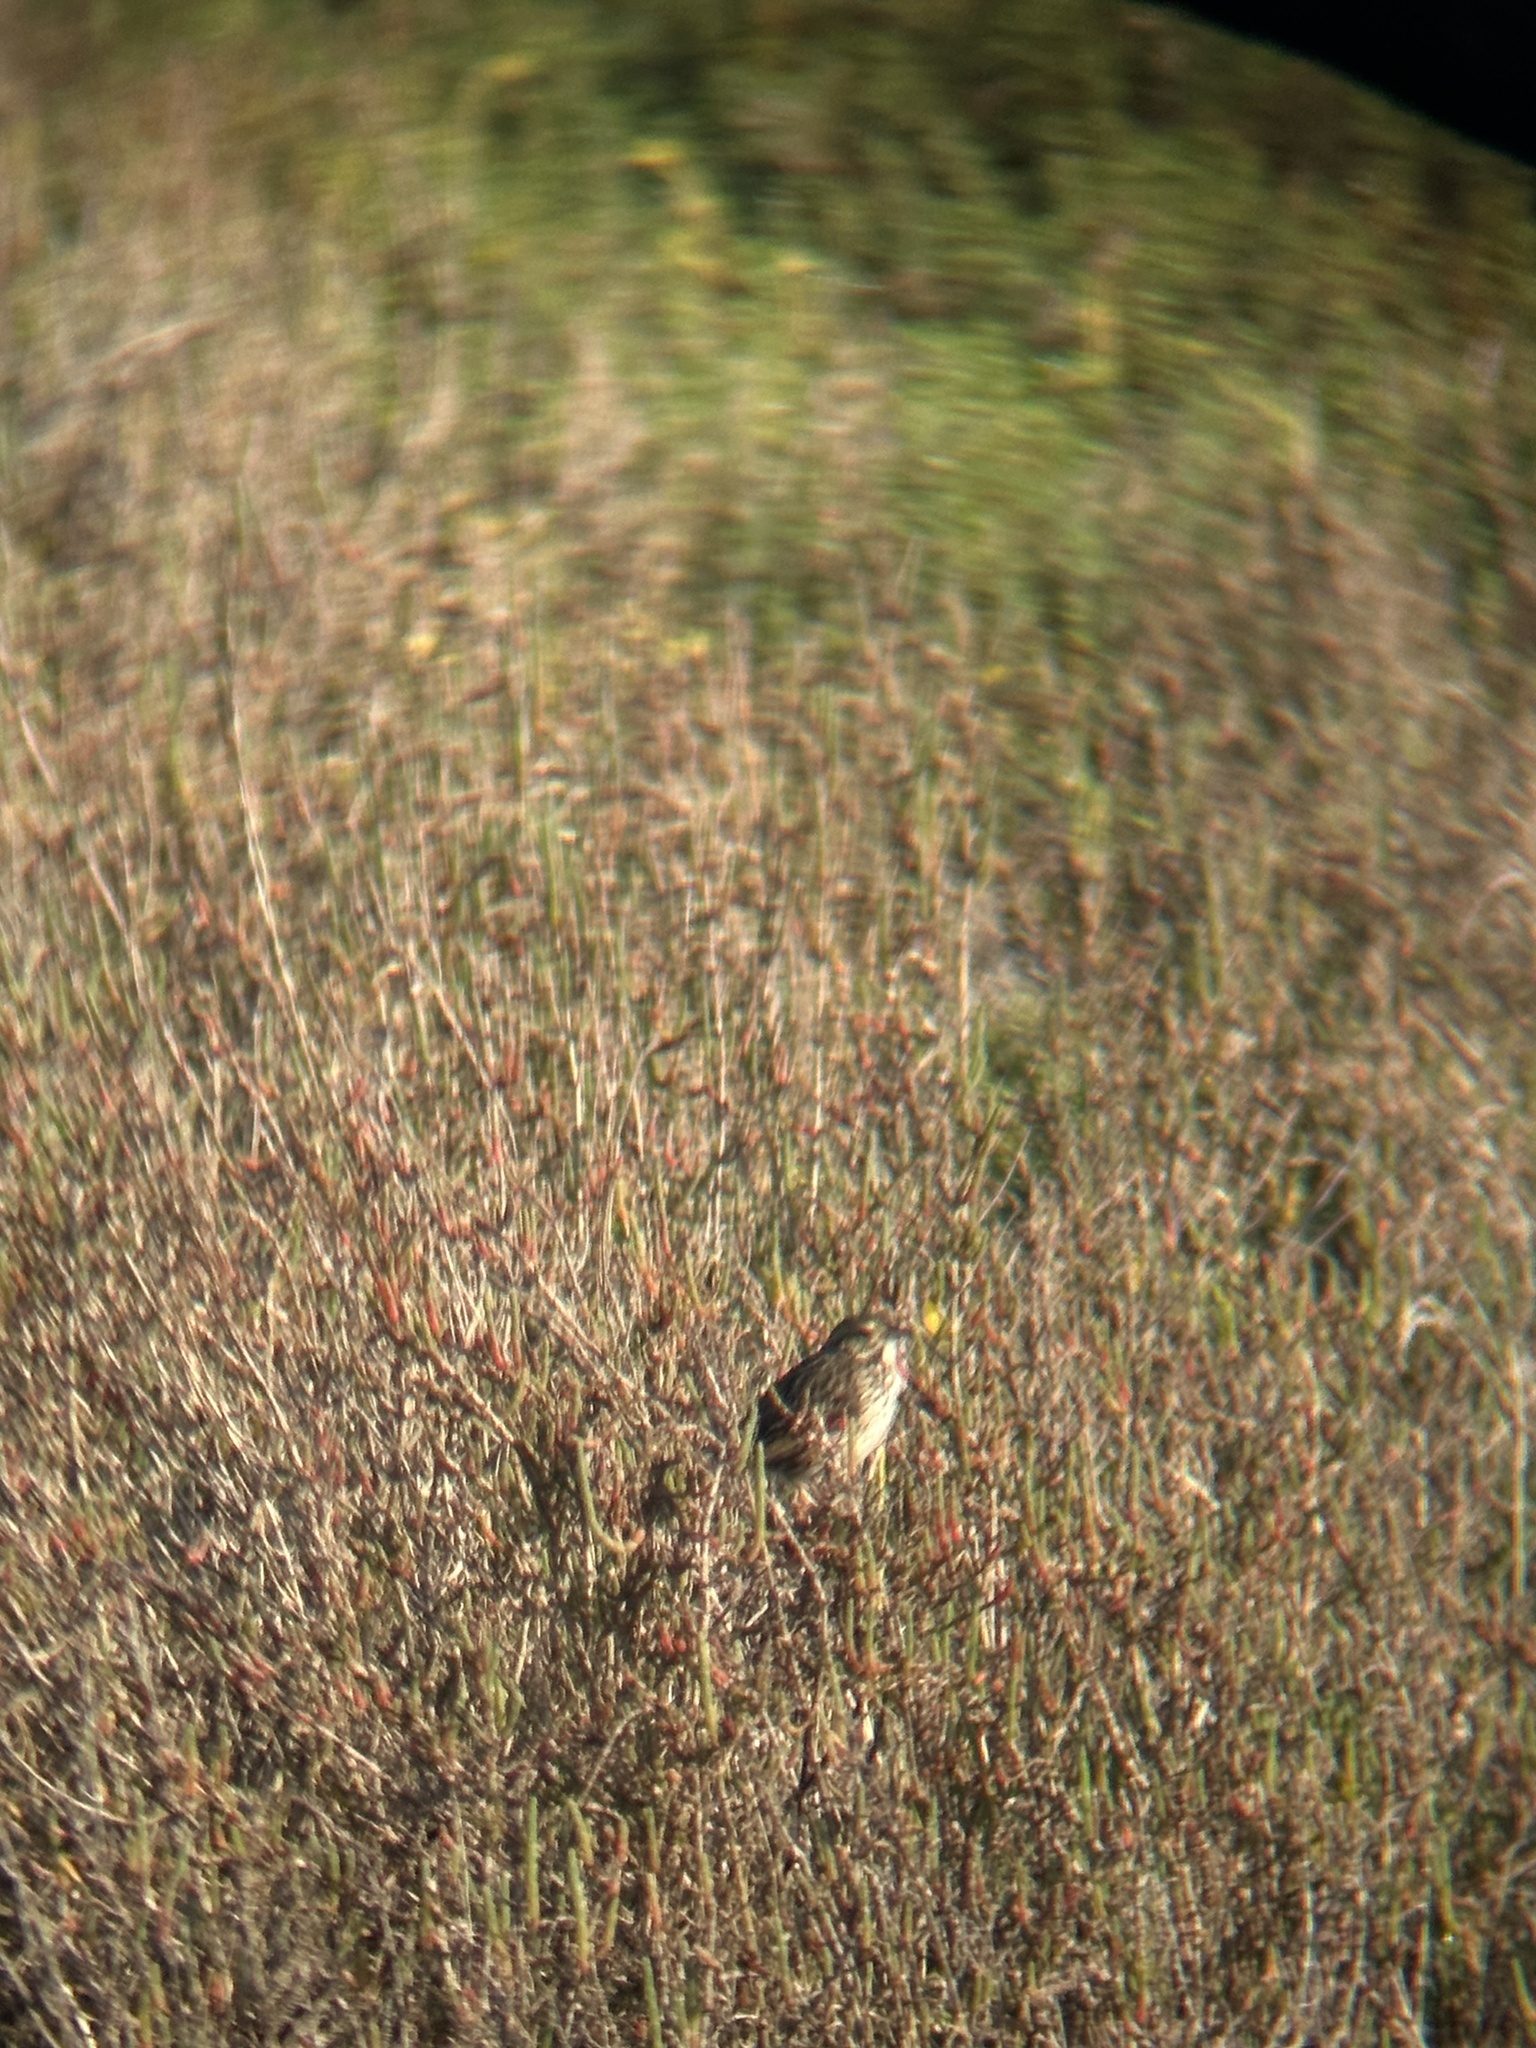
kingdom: Animalia
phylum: Chordata
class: Aves
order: Passeriformes
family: Passerellidae
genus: Passerculus
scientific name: Passerculus sandwichensis
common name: Savannah sparrow
